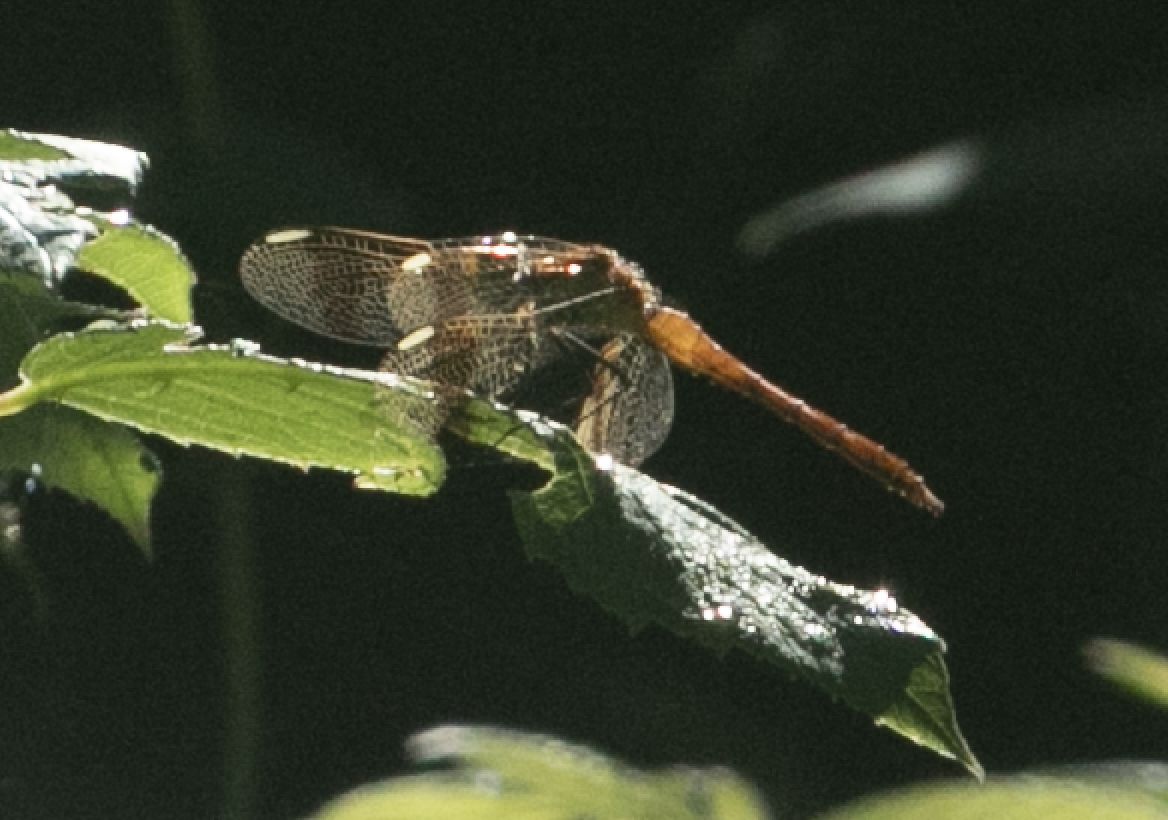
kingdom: Animalia
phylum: Arthropoda
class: Insecta
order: Odonata
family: Libellulidae
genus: Sympetrum
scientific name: Sympetrum pedemontanum
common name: Banded darter
